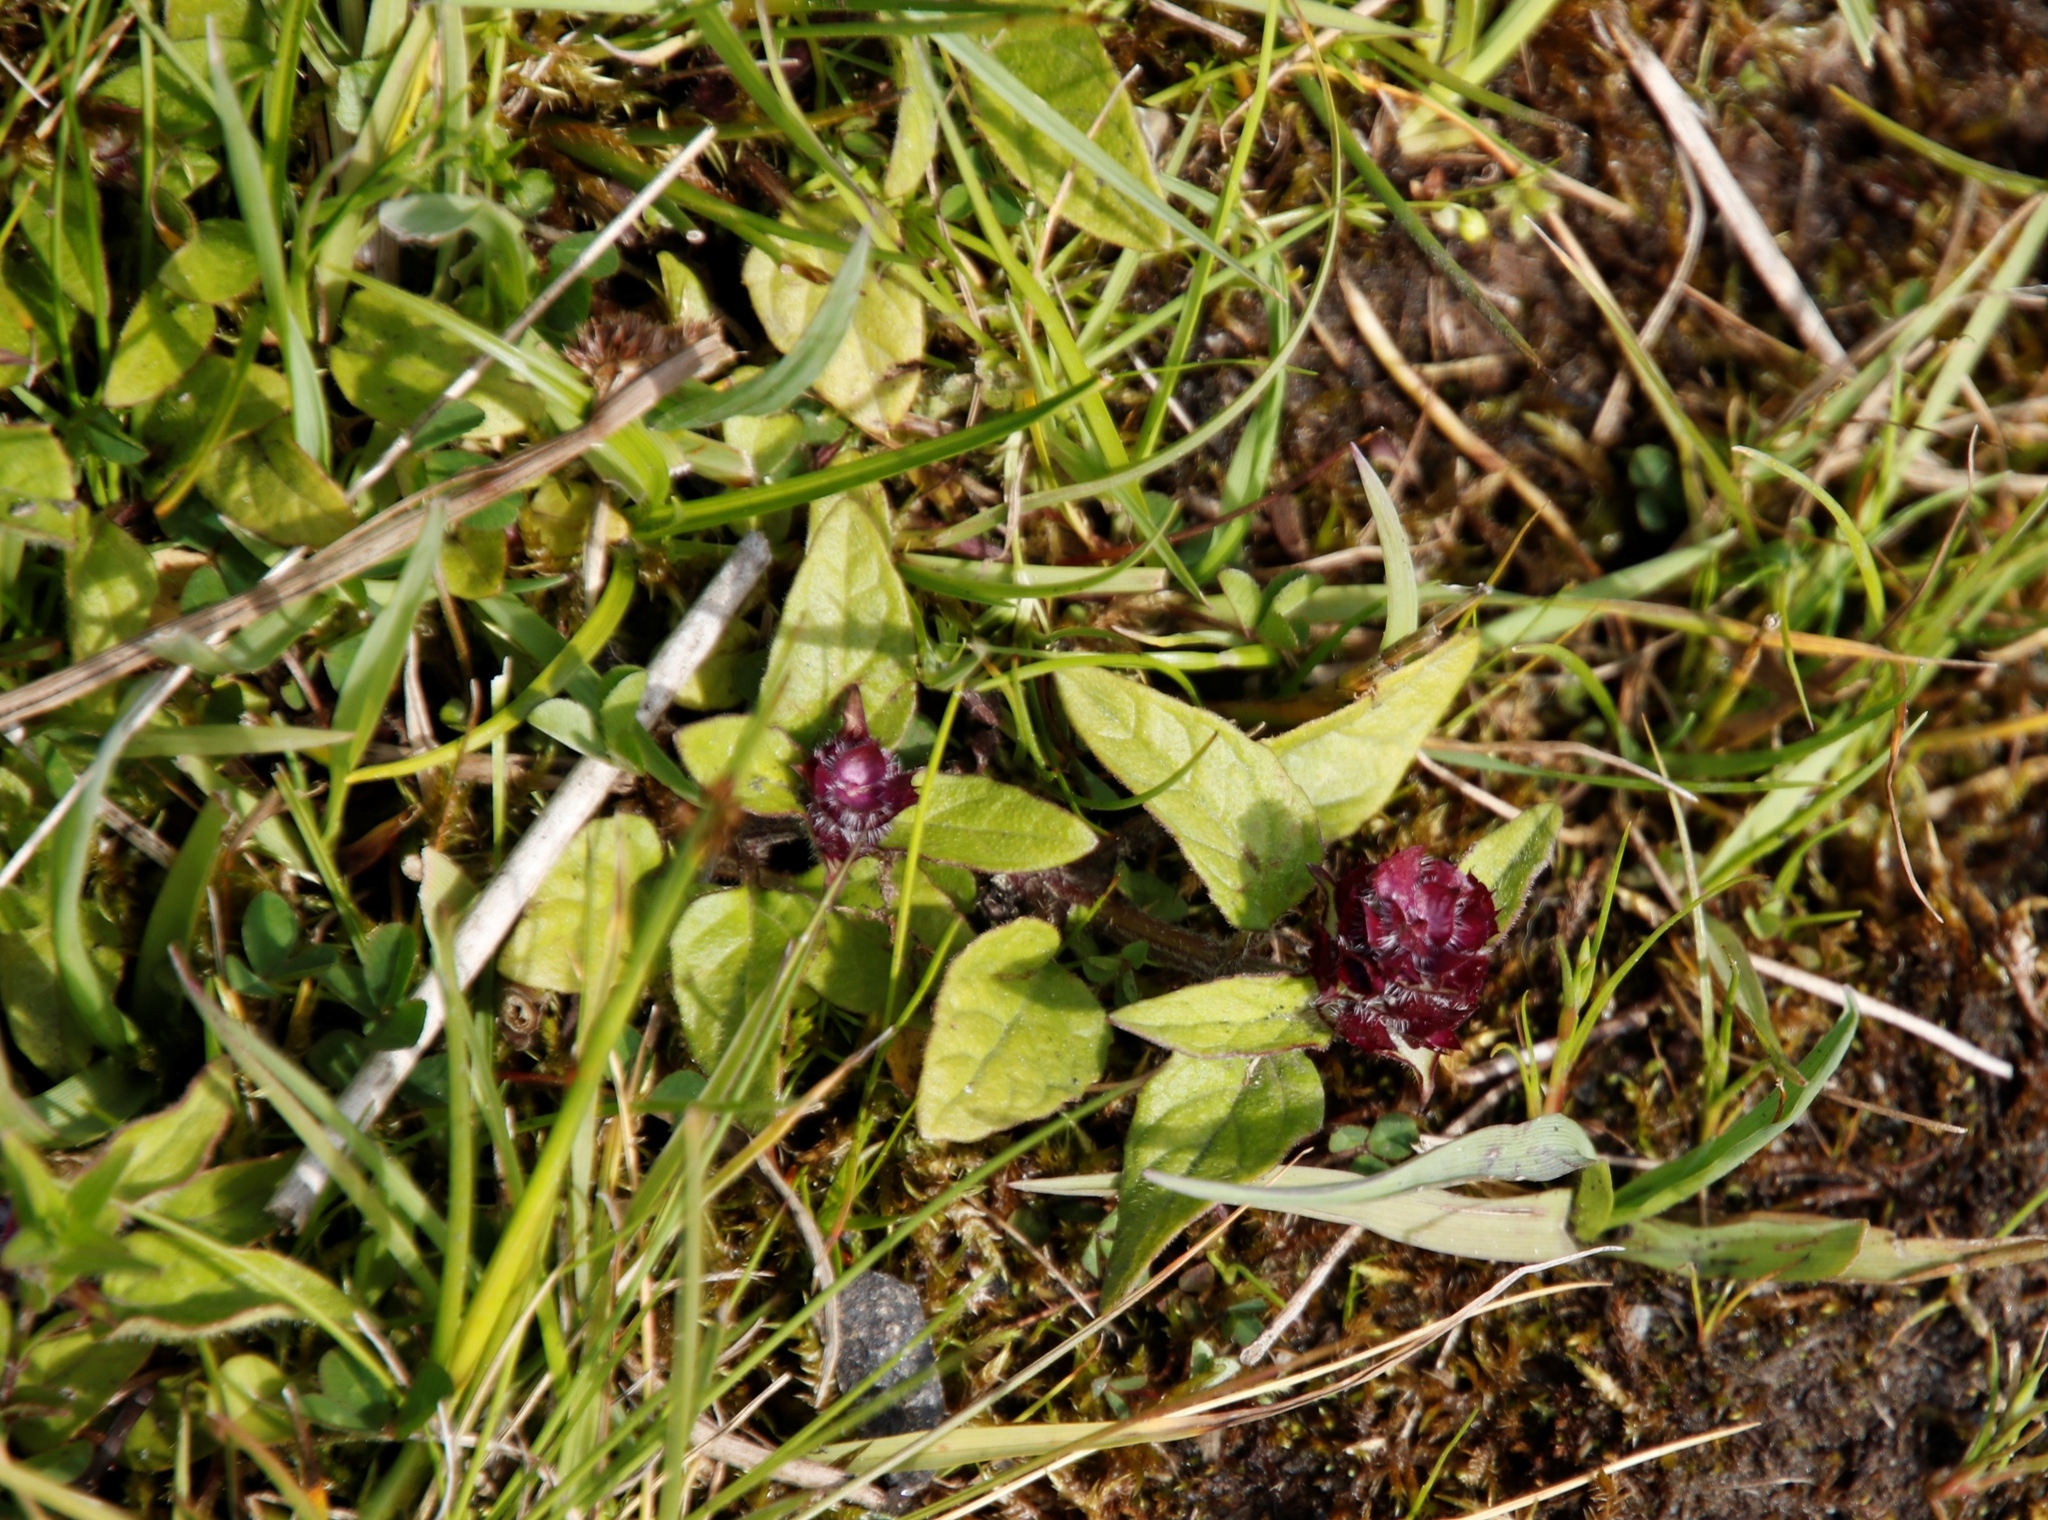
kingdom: Plantae
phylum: Tracheophyta
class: Magnoliopsida
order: Lamiales
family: Lamiaceae
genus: Prunella
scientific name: Prunella vulgaris
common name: Heal-all
